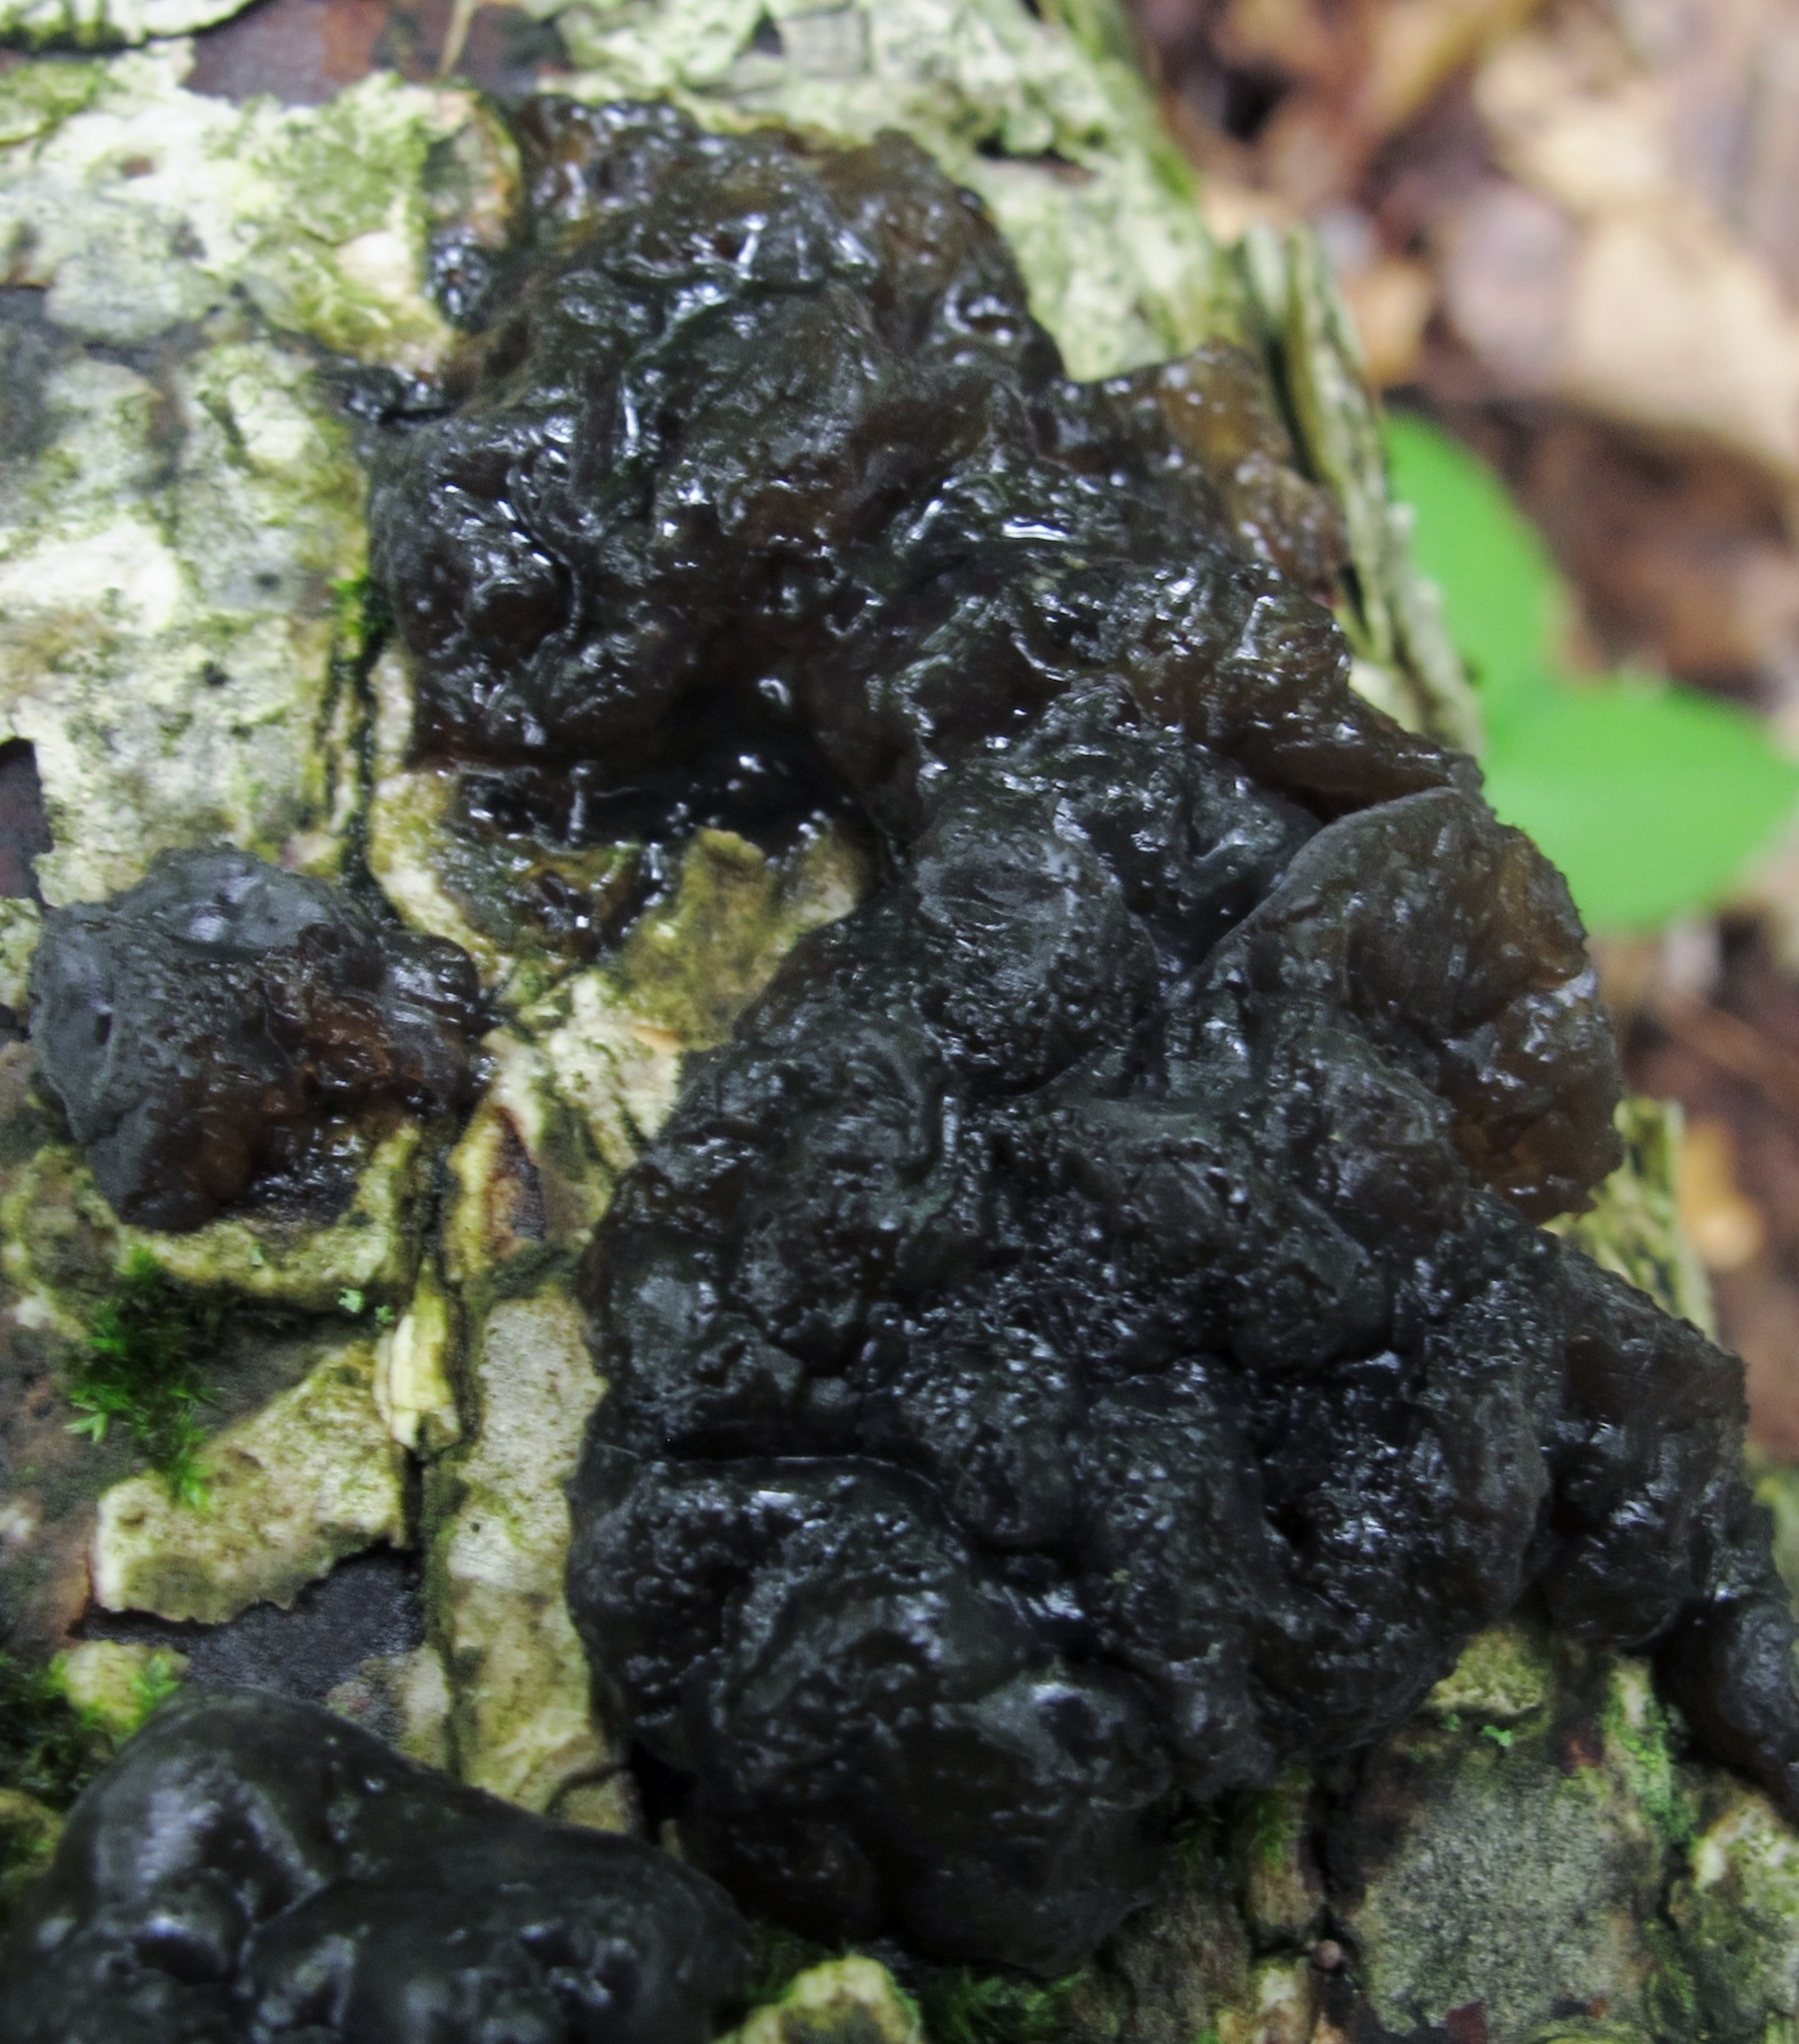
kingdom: Fungi
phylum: Basidiomycota
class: Agaricomycetes
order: Auriculariales
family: Auriculariaceae
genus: Exidia
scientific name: Exidia glandulosa
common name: Witches' butter
